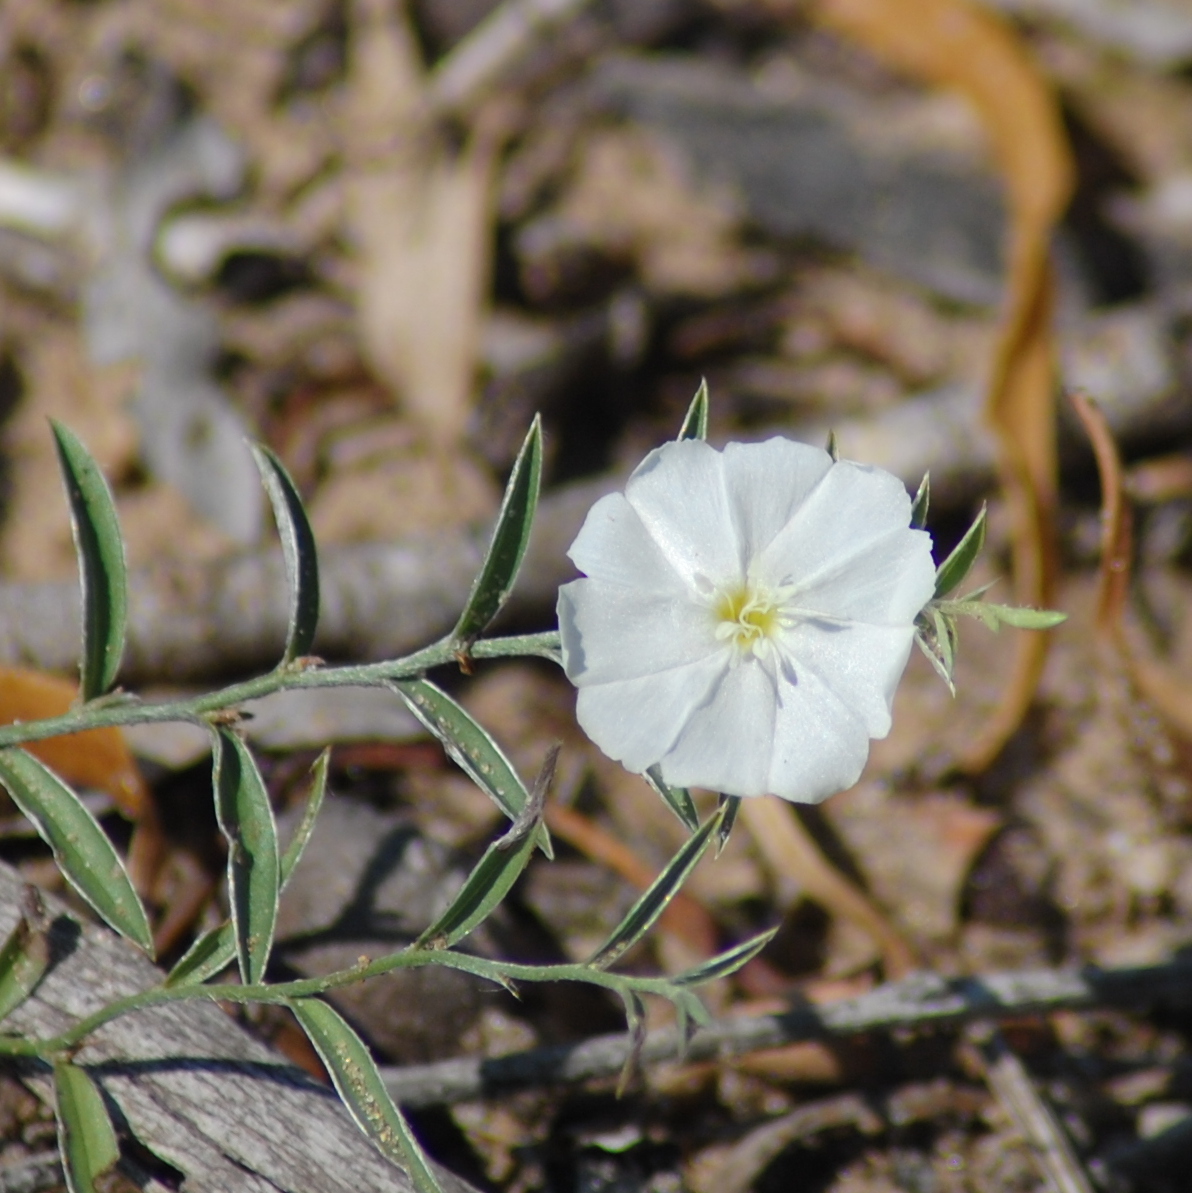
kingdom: Plantae
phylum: Tracheophyta
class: Magnoliopsida
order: Solanales
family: Convolvulaceae
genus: Evolvulus
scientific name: Evolvulus sericeus
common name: Blue dots
